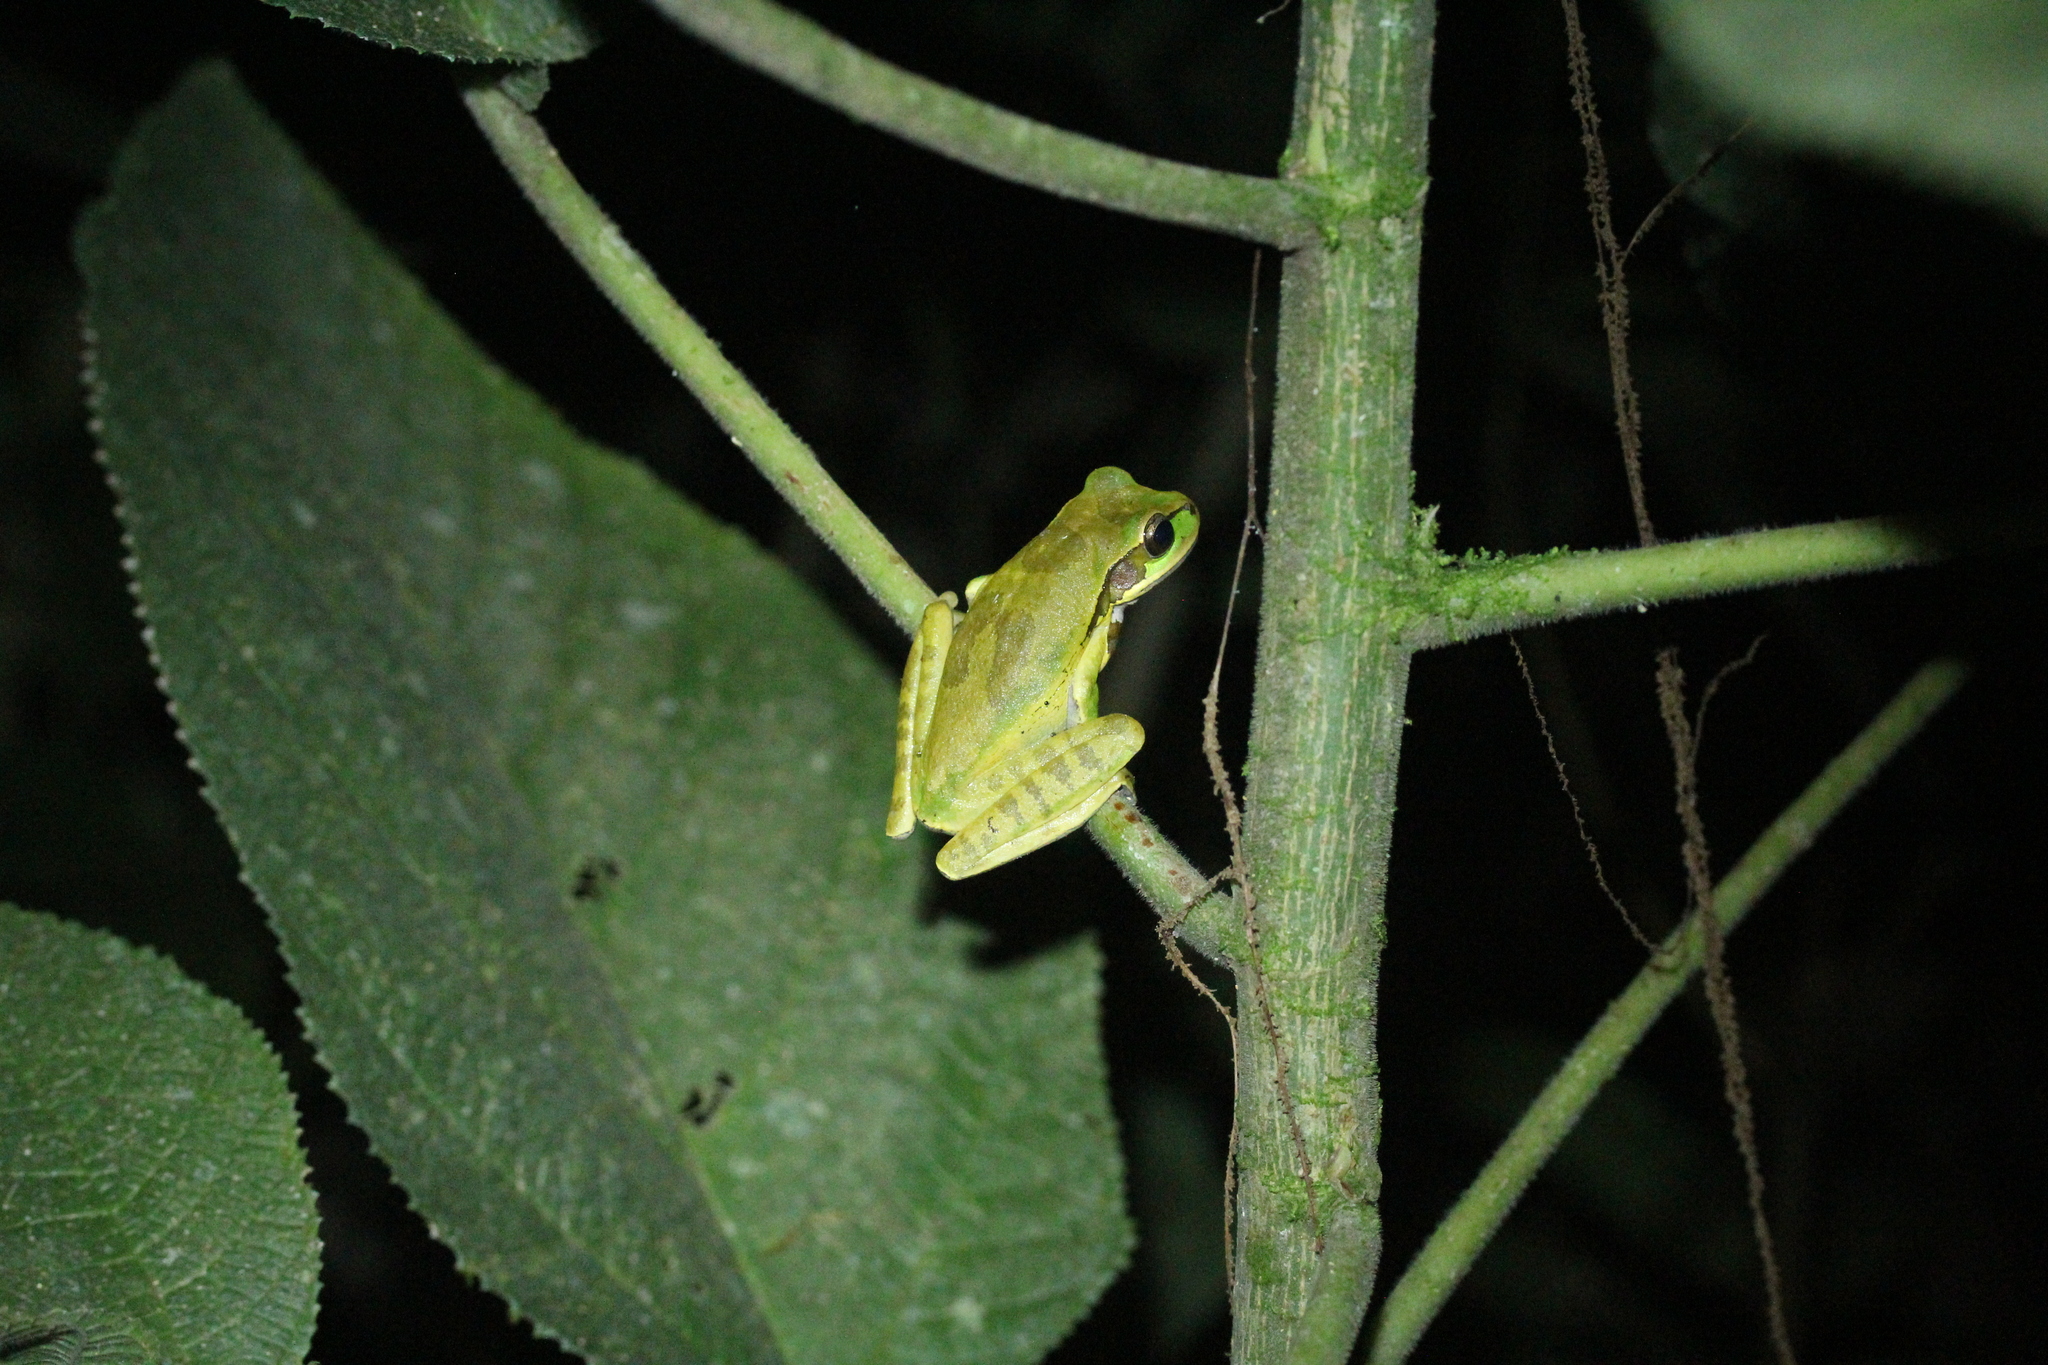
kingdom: Animalia
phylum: Chordata
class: Amphibia
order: Anura
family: Hylidae
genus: Smilisca
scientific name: Smilisca phaeota
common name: Central american smilisca
